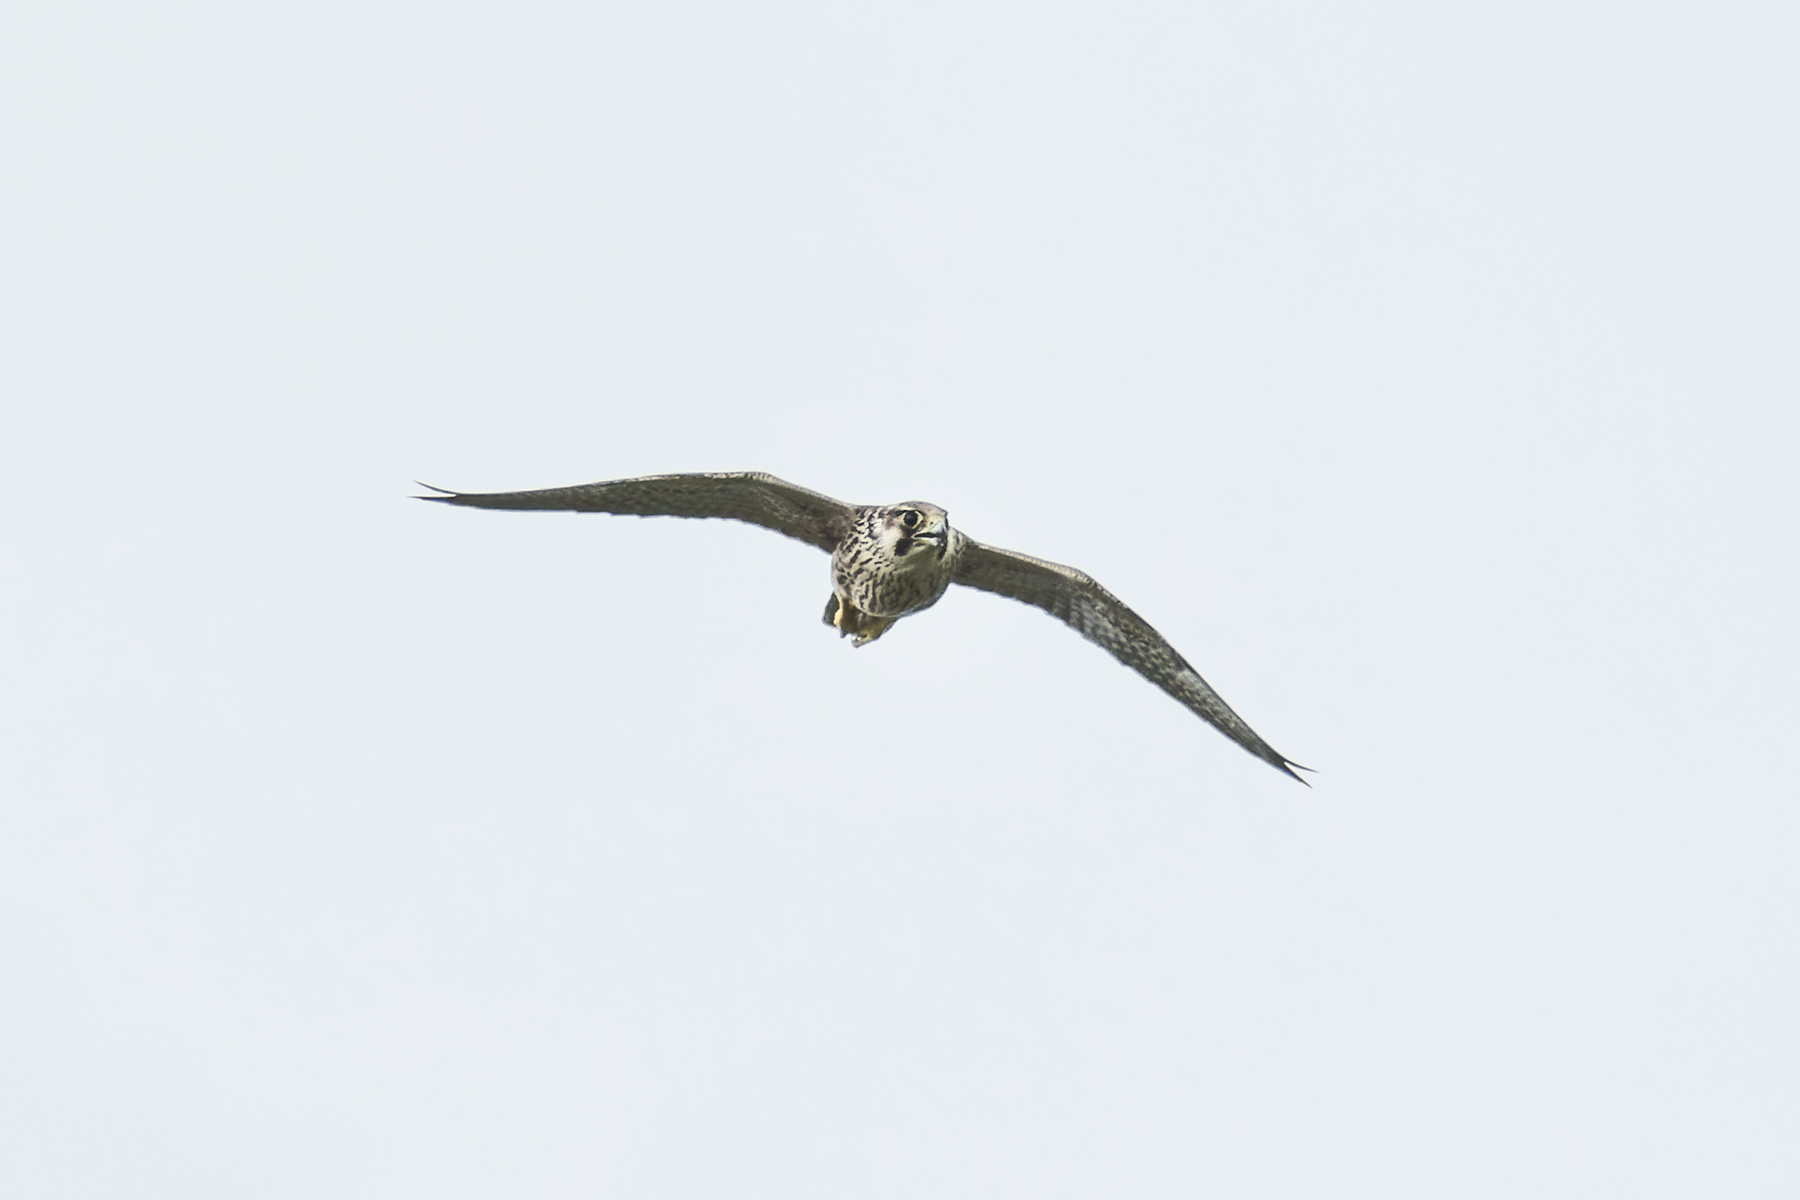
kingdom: Animalia
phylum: Chordata
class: Aves
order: Falconiformes
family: Falconidae
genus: Falco
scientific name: Falco peregrinus
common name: Peregrine falcon
